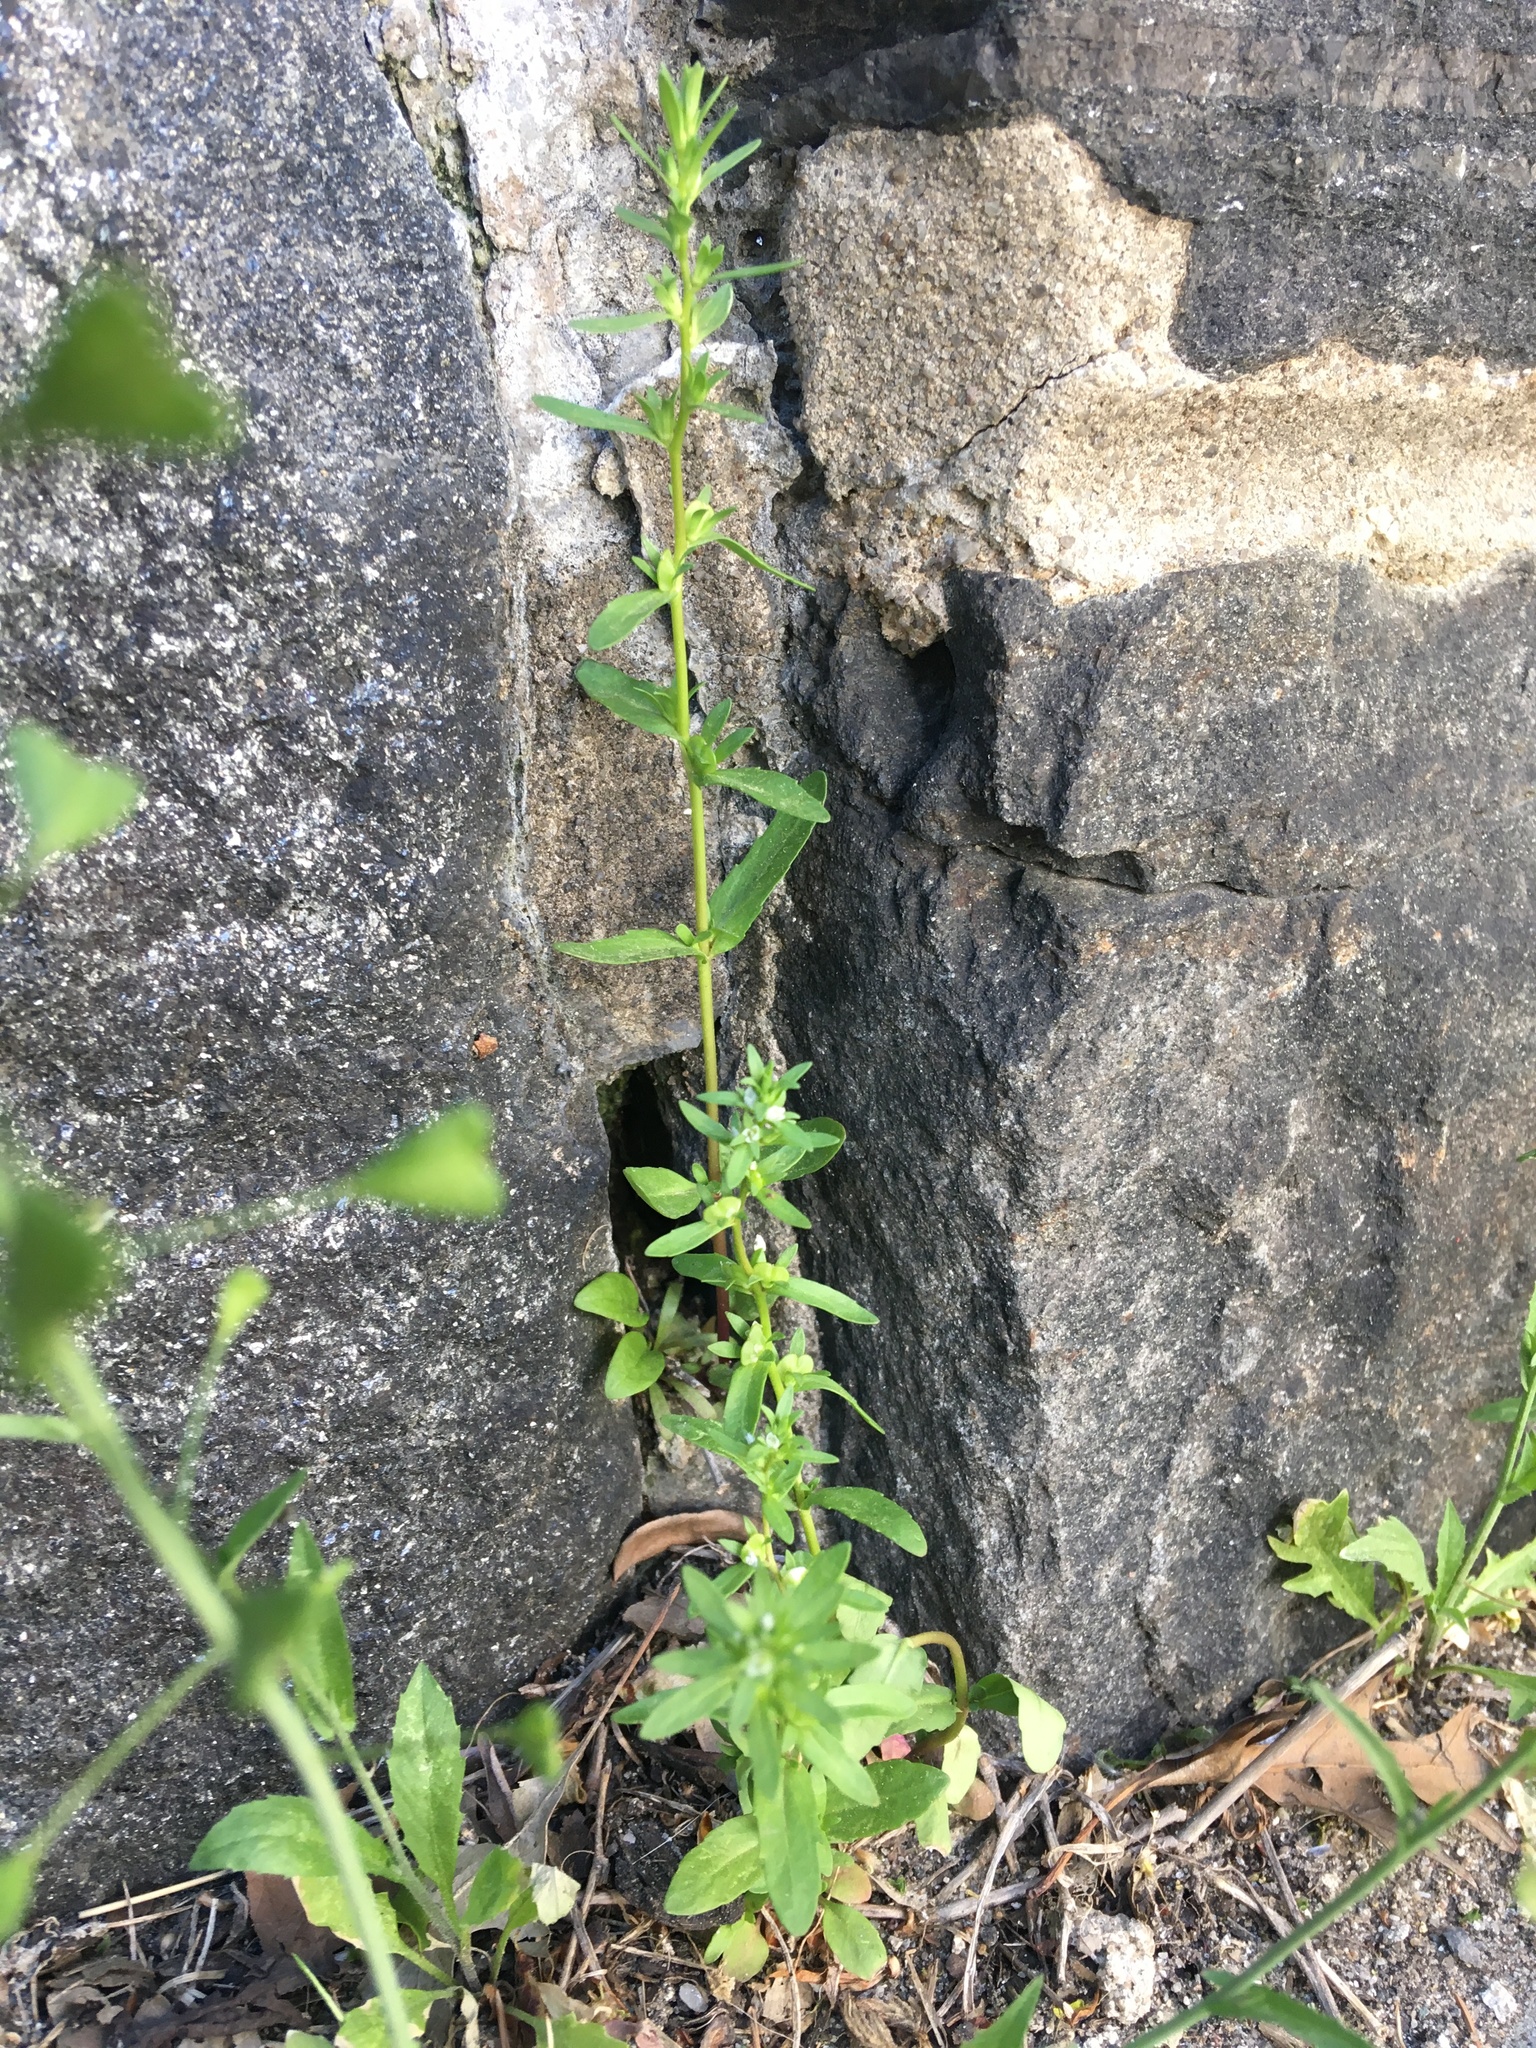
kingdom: Plantae
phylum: Tracheophyta
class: Magnoliopsida
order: Lamiales
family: Plantaginaceae
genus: Veronica
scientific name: Veronica peregrina
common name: Neckweed
